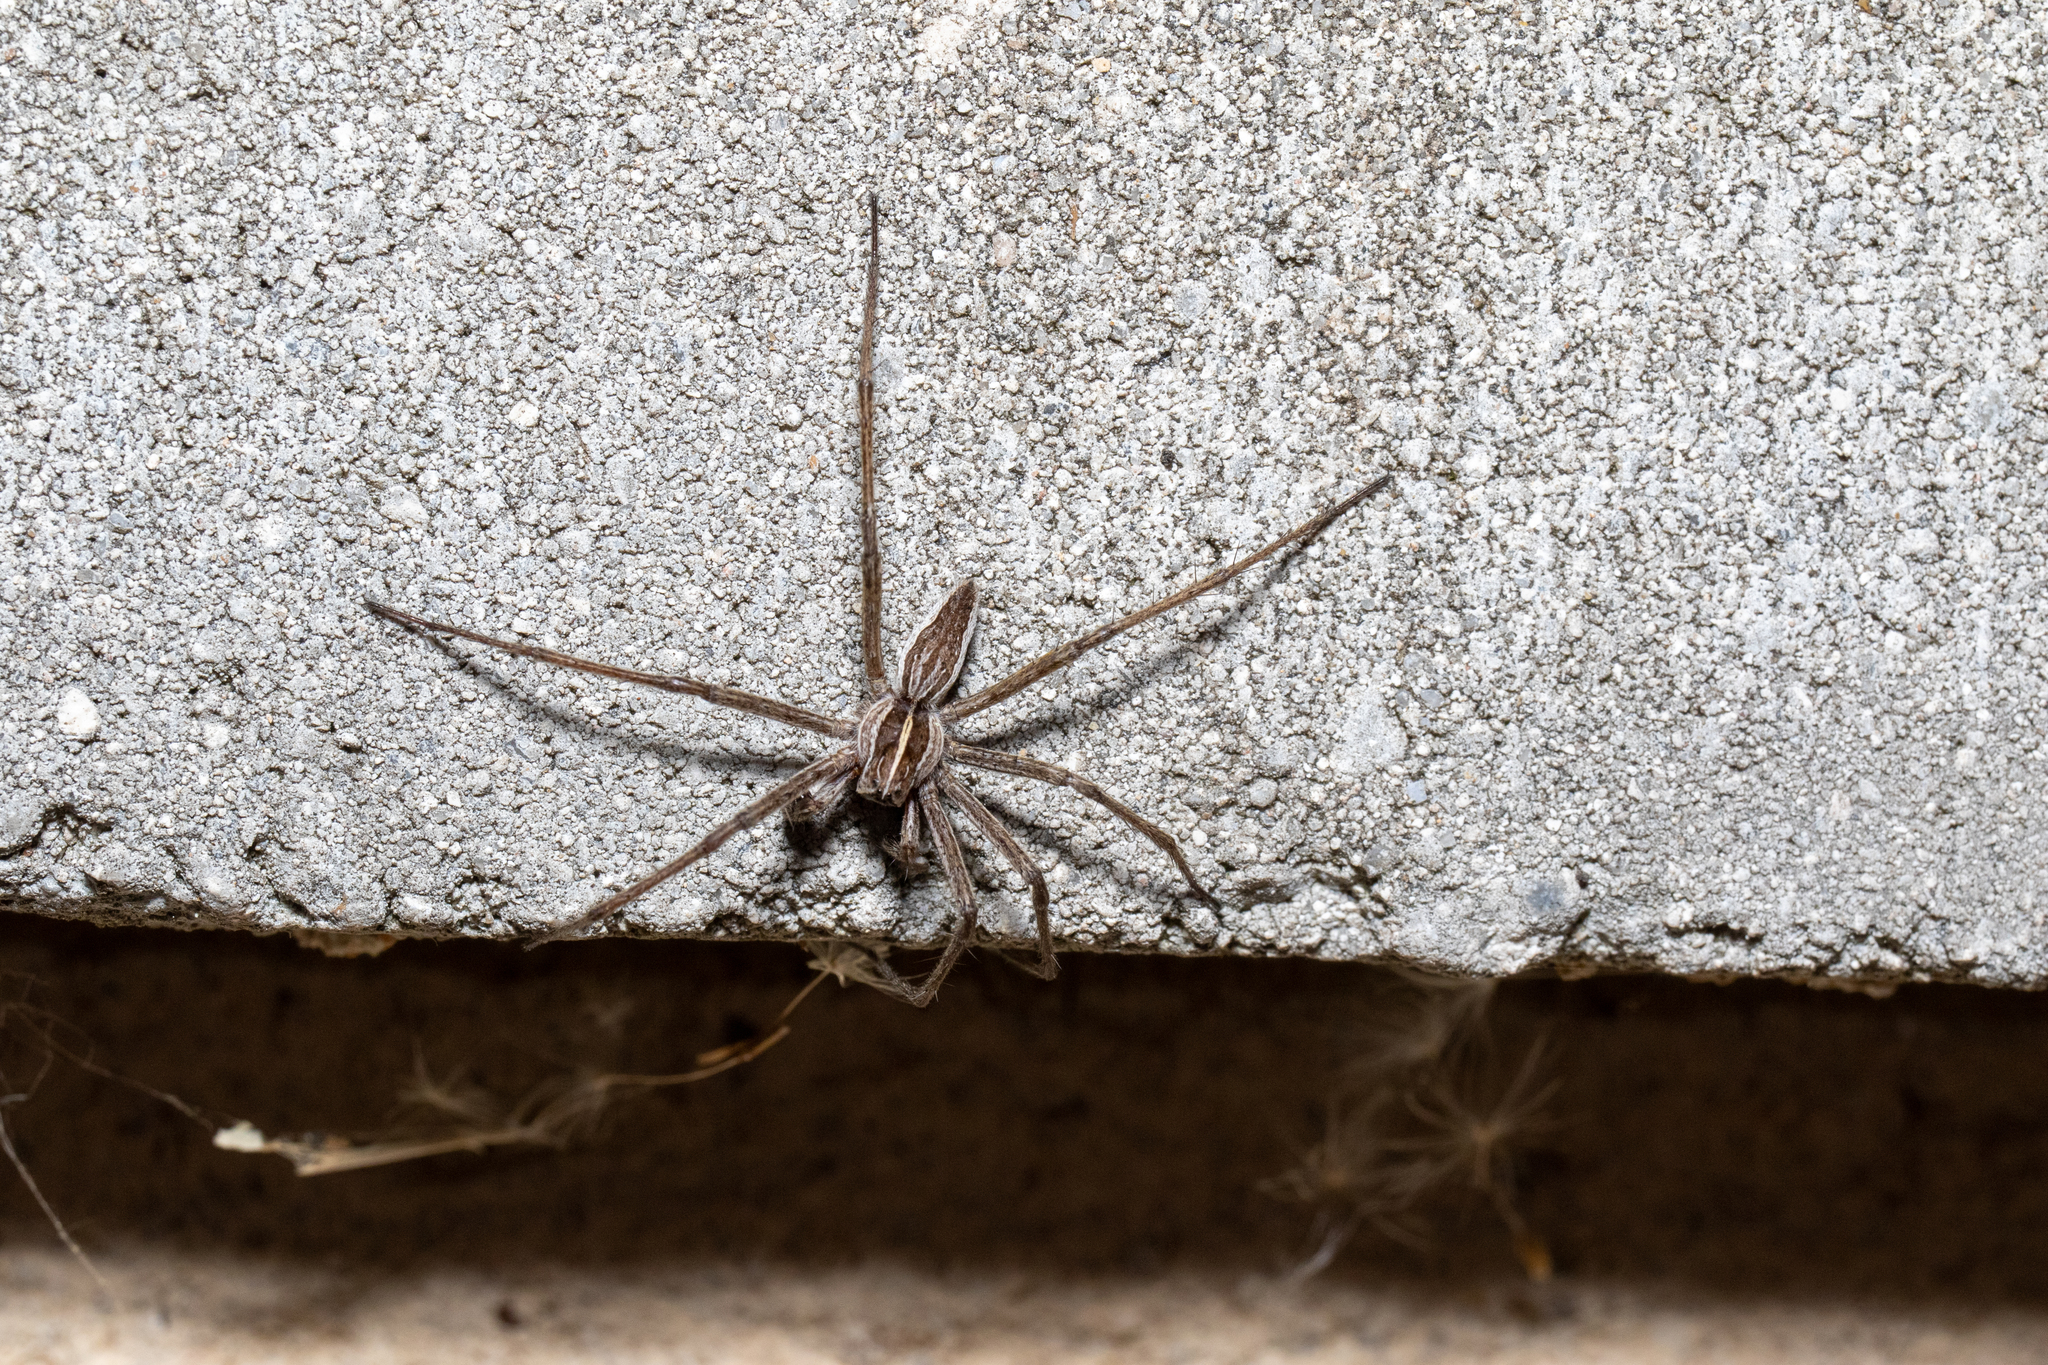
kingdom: Animalia
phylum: Arthropoda
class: Arachnida
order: Araneae
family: Pisauridae
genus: Pisaura
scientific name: Pisaura mirabilis
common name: Tent spider
